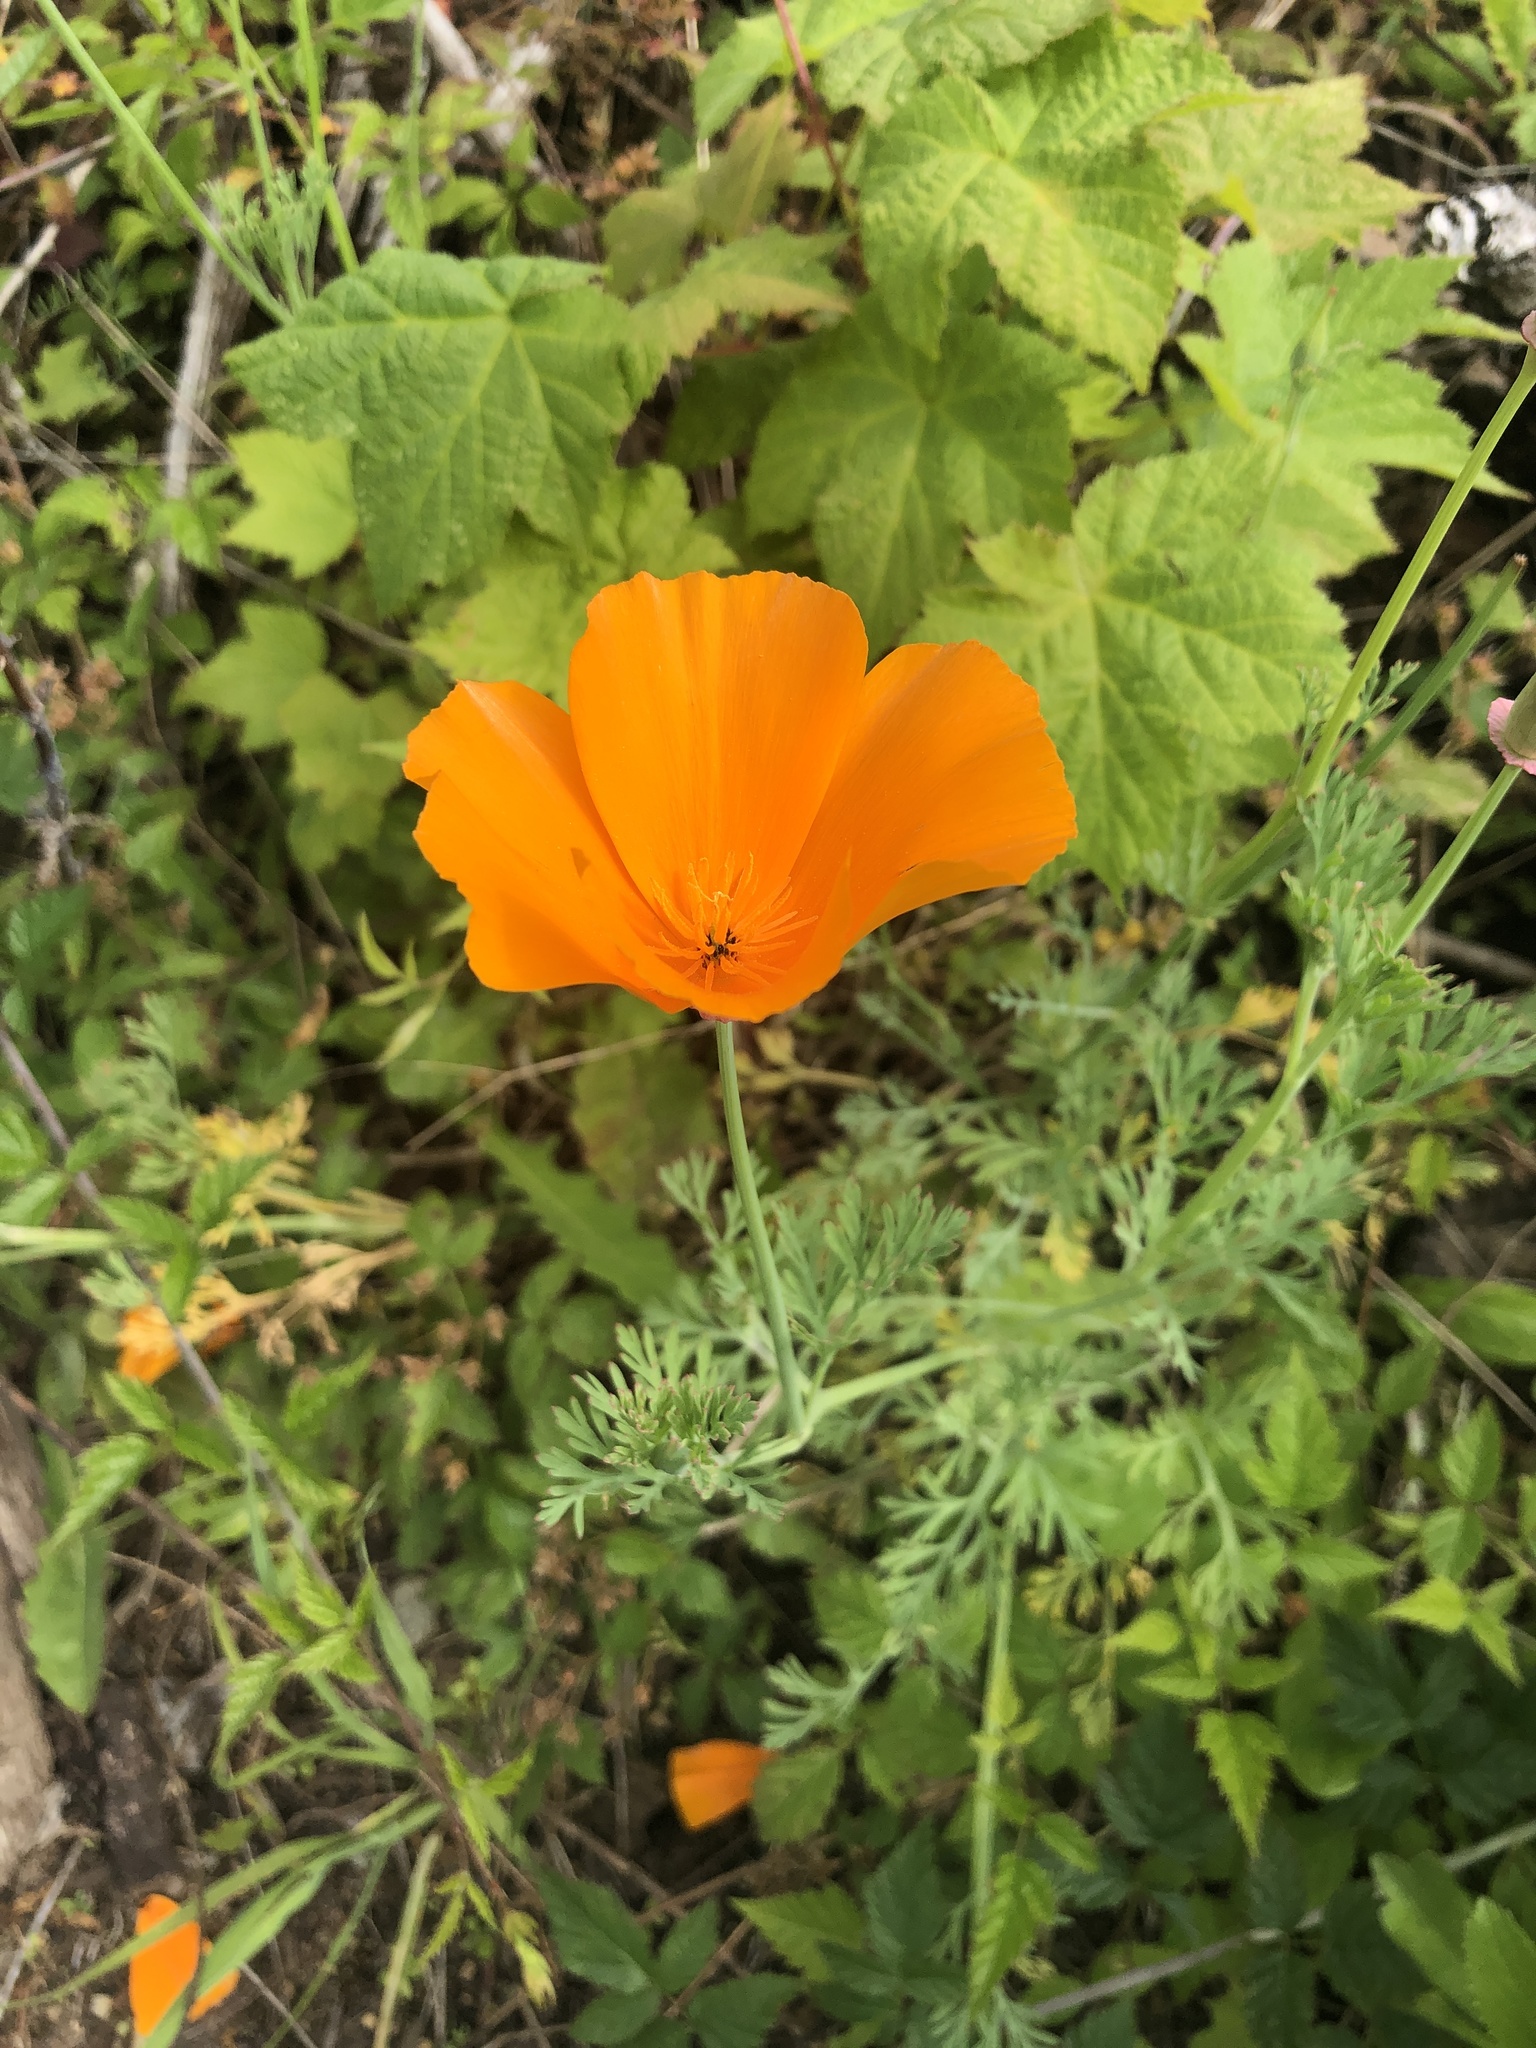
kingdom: Plantae
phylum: Tracheophyta
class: Magnoliopsida
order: Ranunculales
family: Papaveraceae
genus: Eschscholzia
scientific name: Eschscholzia californica
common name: California poppy
